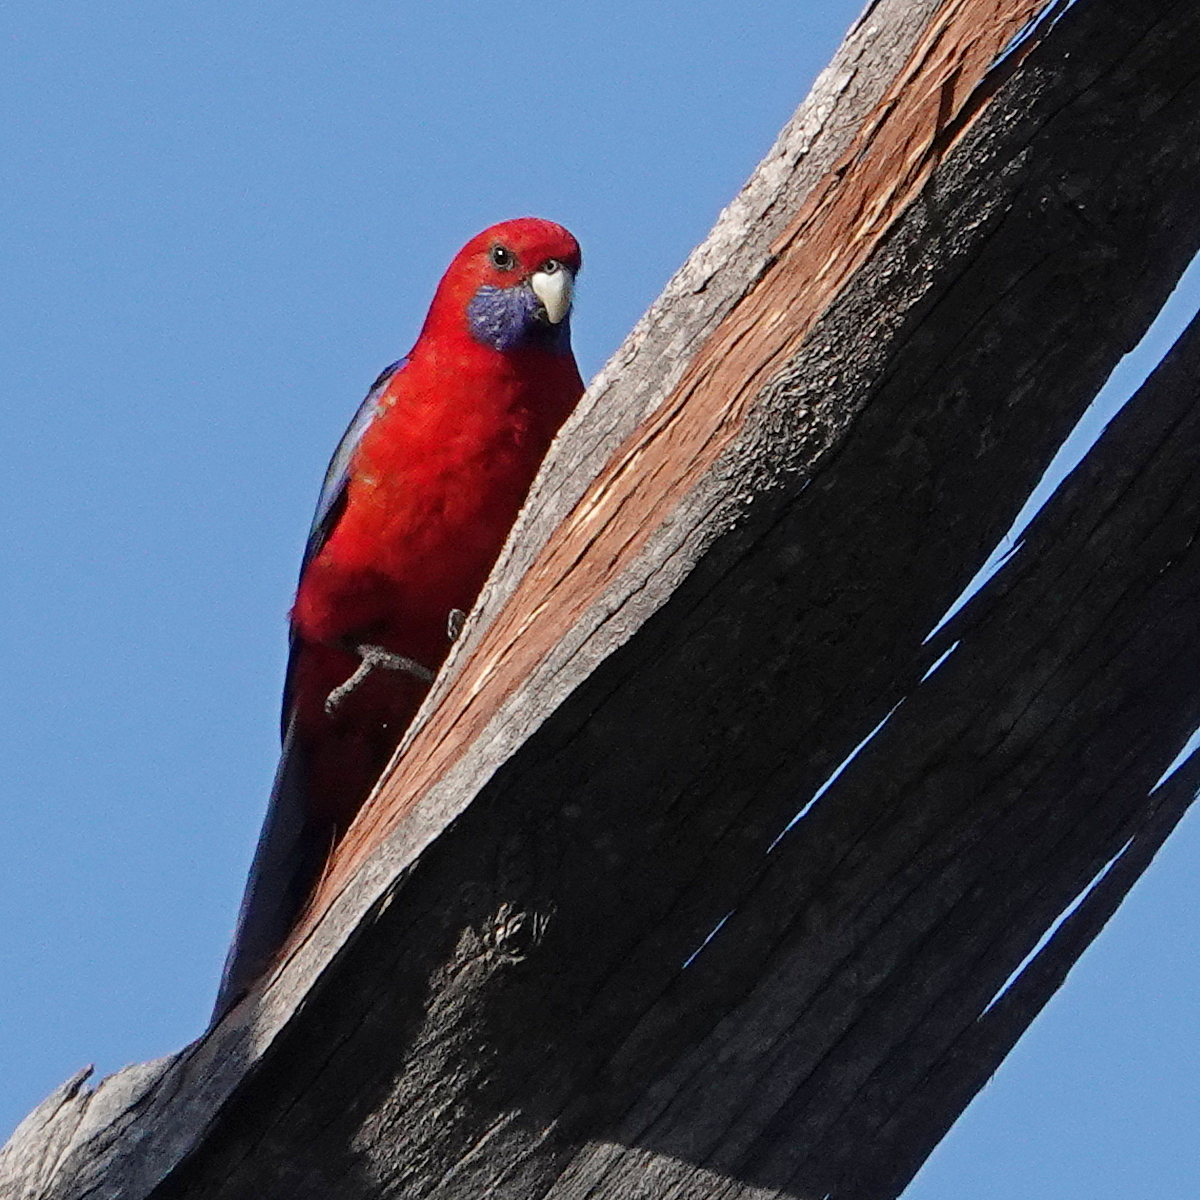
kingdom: Animalia
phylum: Chordata
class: Aves
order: Psittaciformes
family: Psittacidae
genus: Platycercus
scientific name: Platycercus elegans
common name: Crimson rosella
